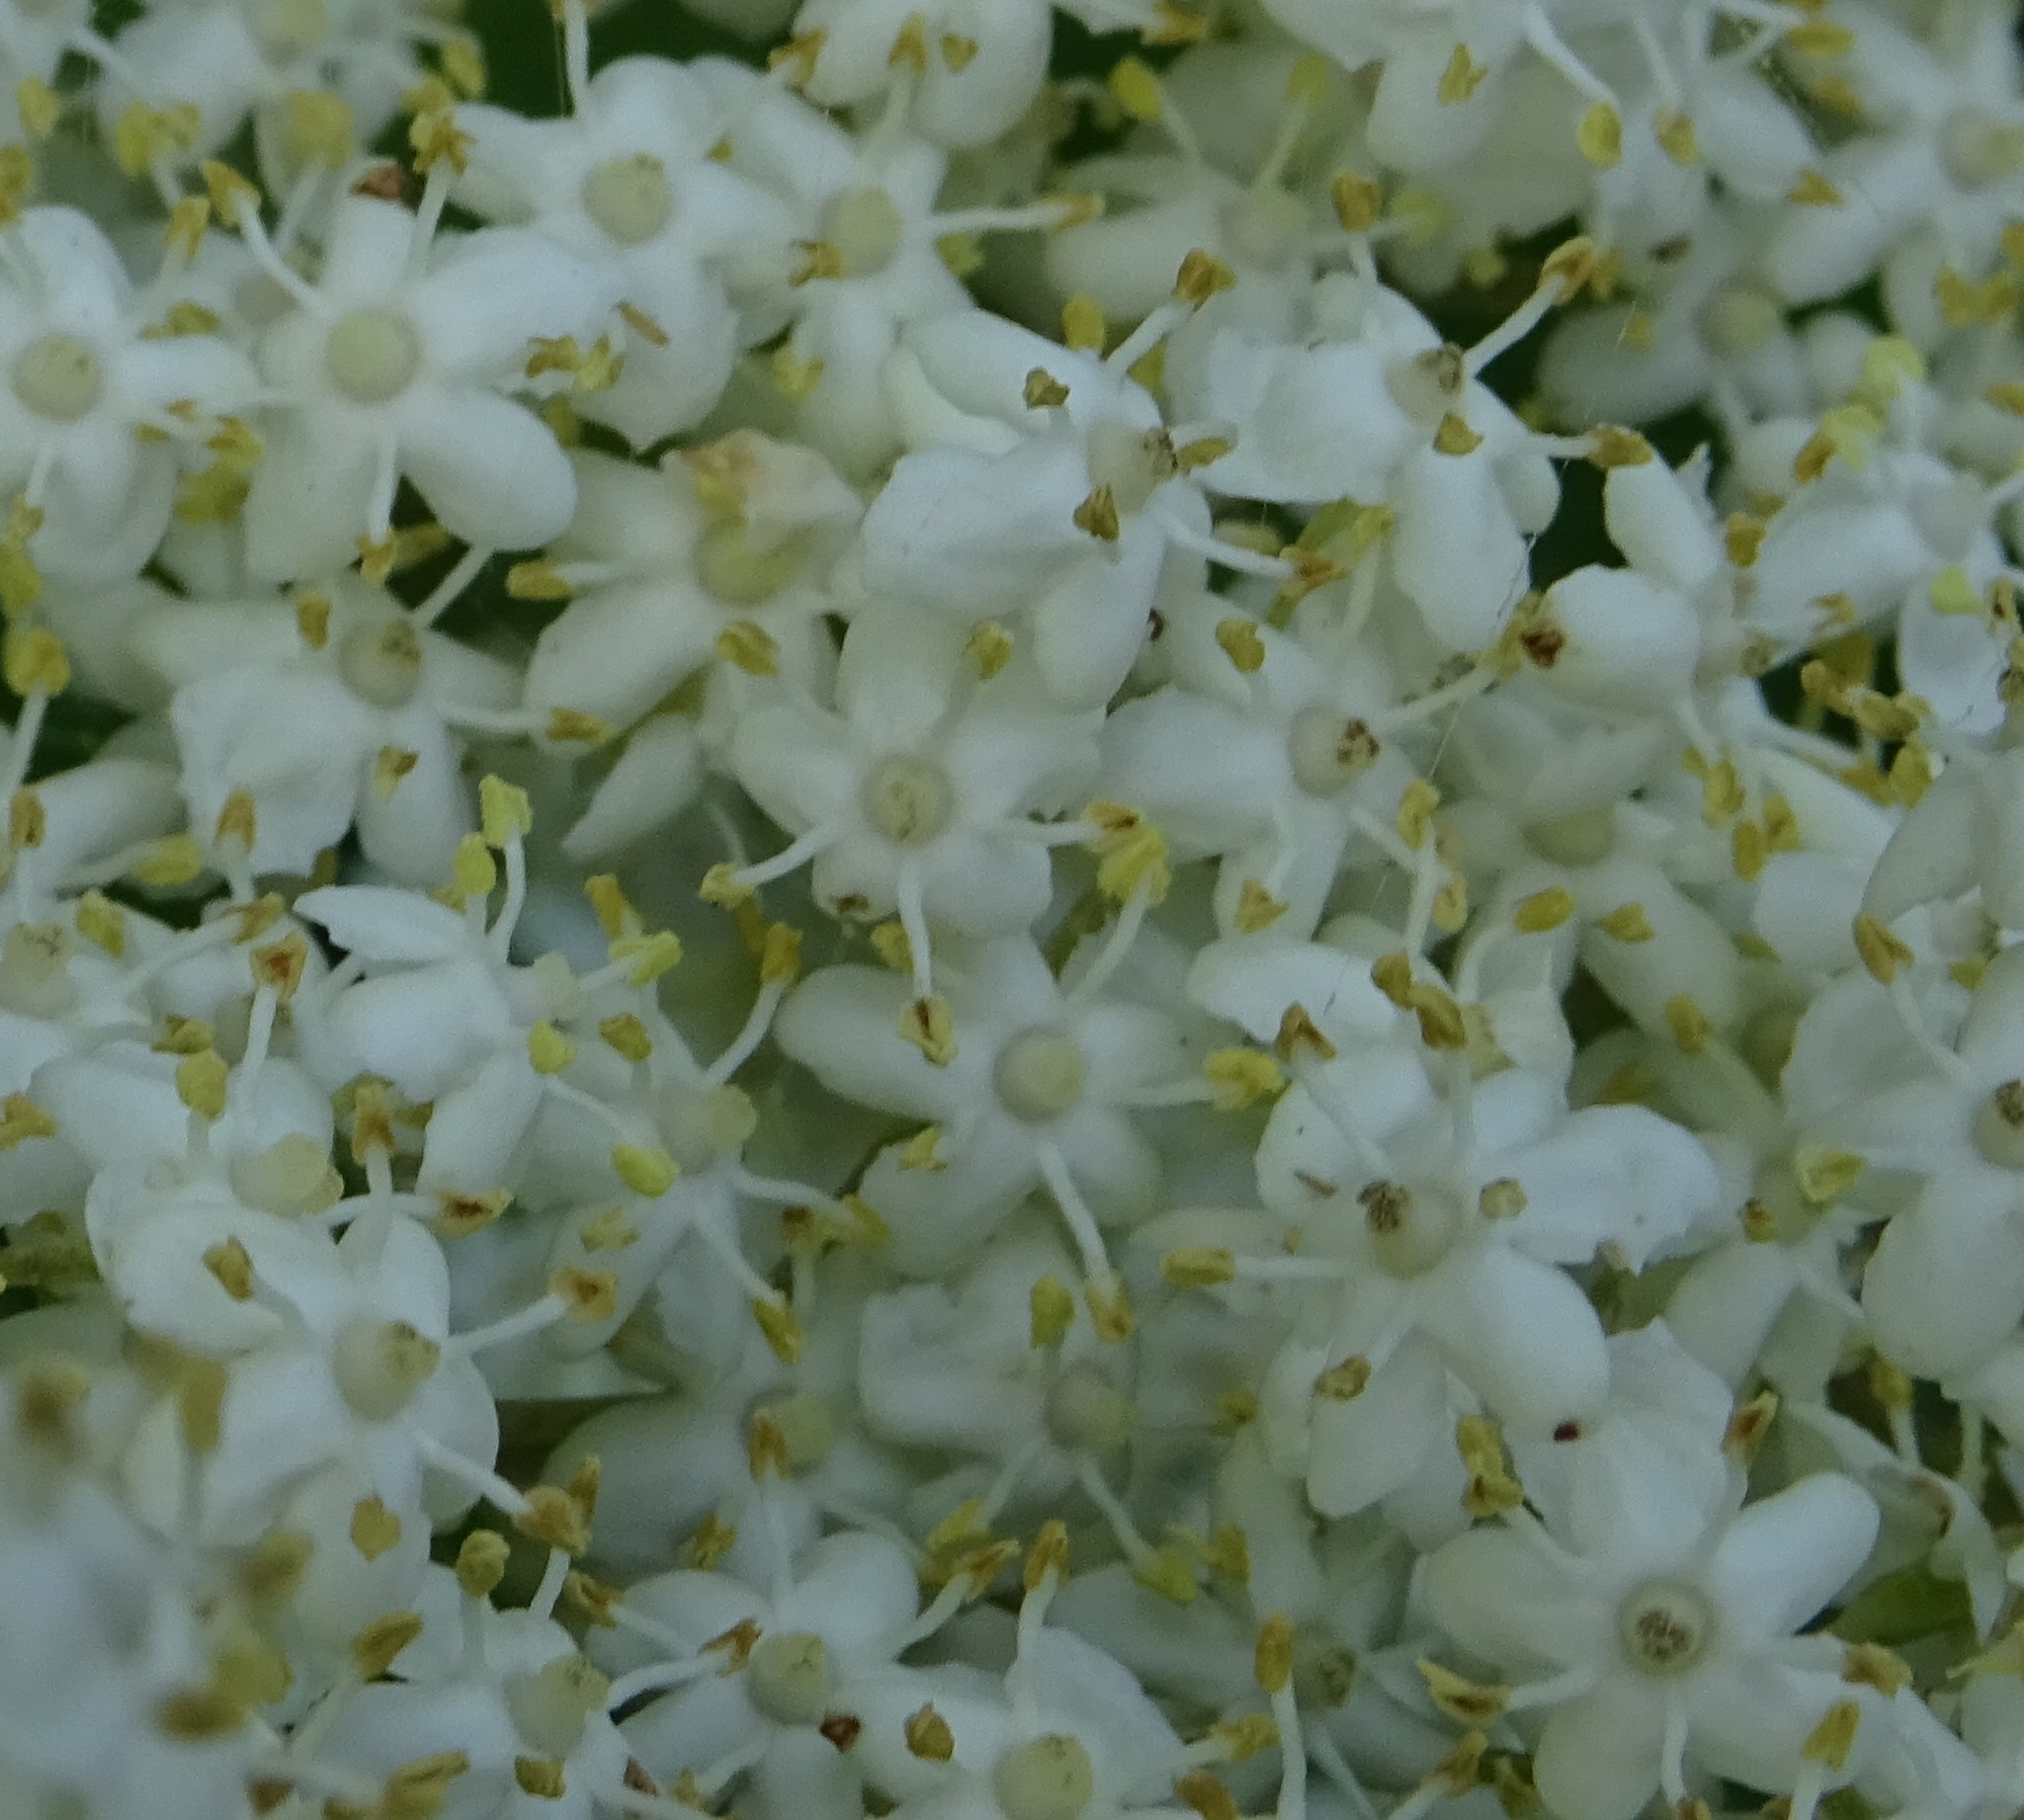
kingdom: Plantae
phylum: Tracheophyta
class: Magnoliopsida
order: Dipsacales
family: Viburnaceae
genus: Sambucus
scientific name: Sambucus nigra
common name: Elder
